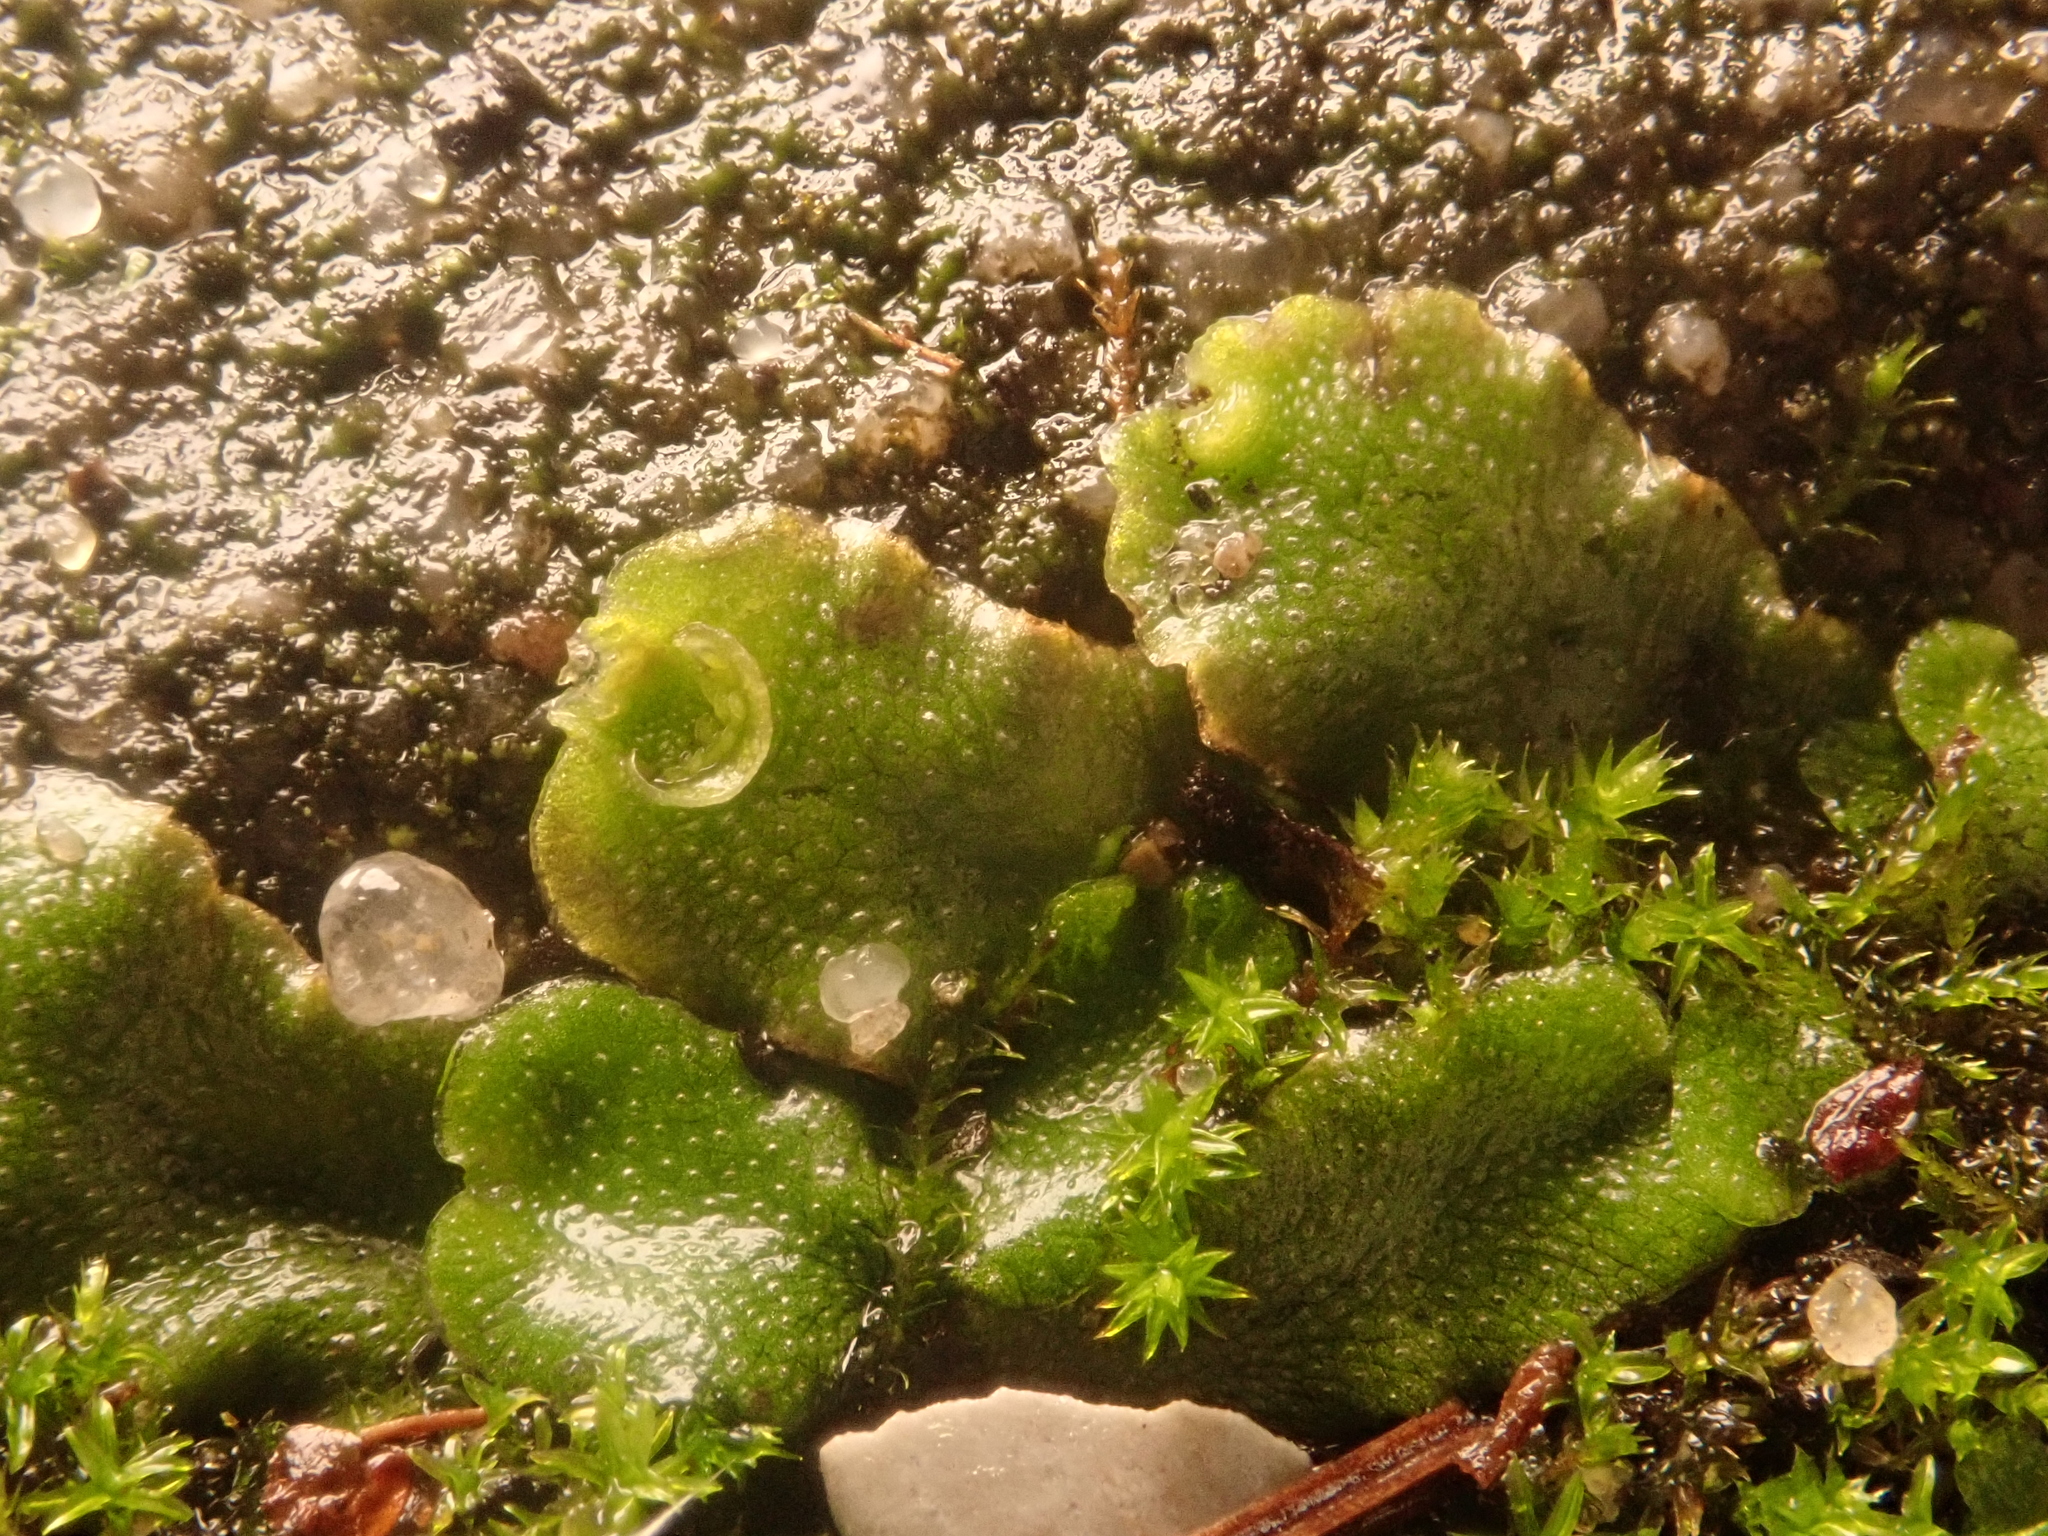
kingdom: Plantae
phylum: Marchantiophyta
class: Marchantiopsida
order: Lunulariales
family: Lunulariaceae
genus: Lunularia
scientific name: Lunularia cruciata
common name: Crescent-cup liverwort
